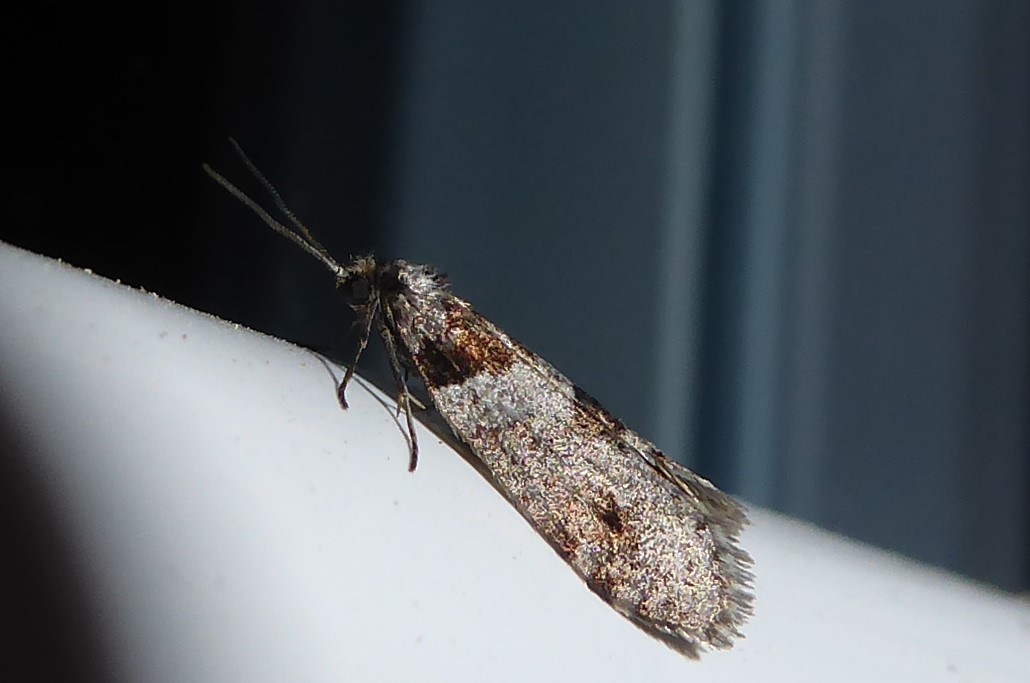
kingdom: Animalia
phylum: Arthropoda
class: Insecta
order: Lepidoptera
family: Psychidae
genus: Lepidoscia
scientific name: Lepidoscia heliochares
